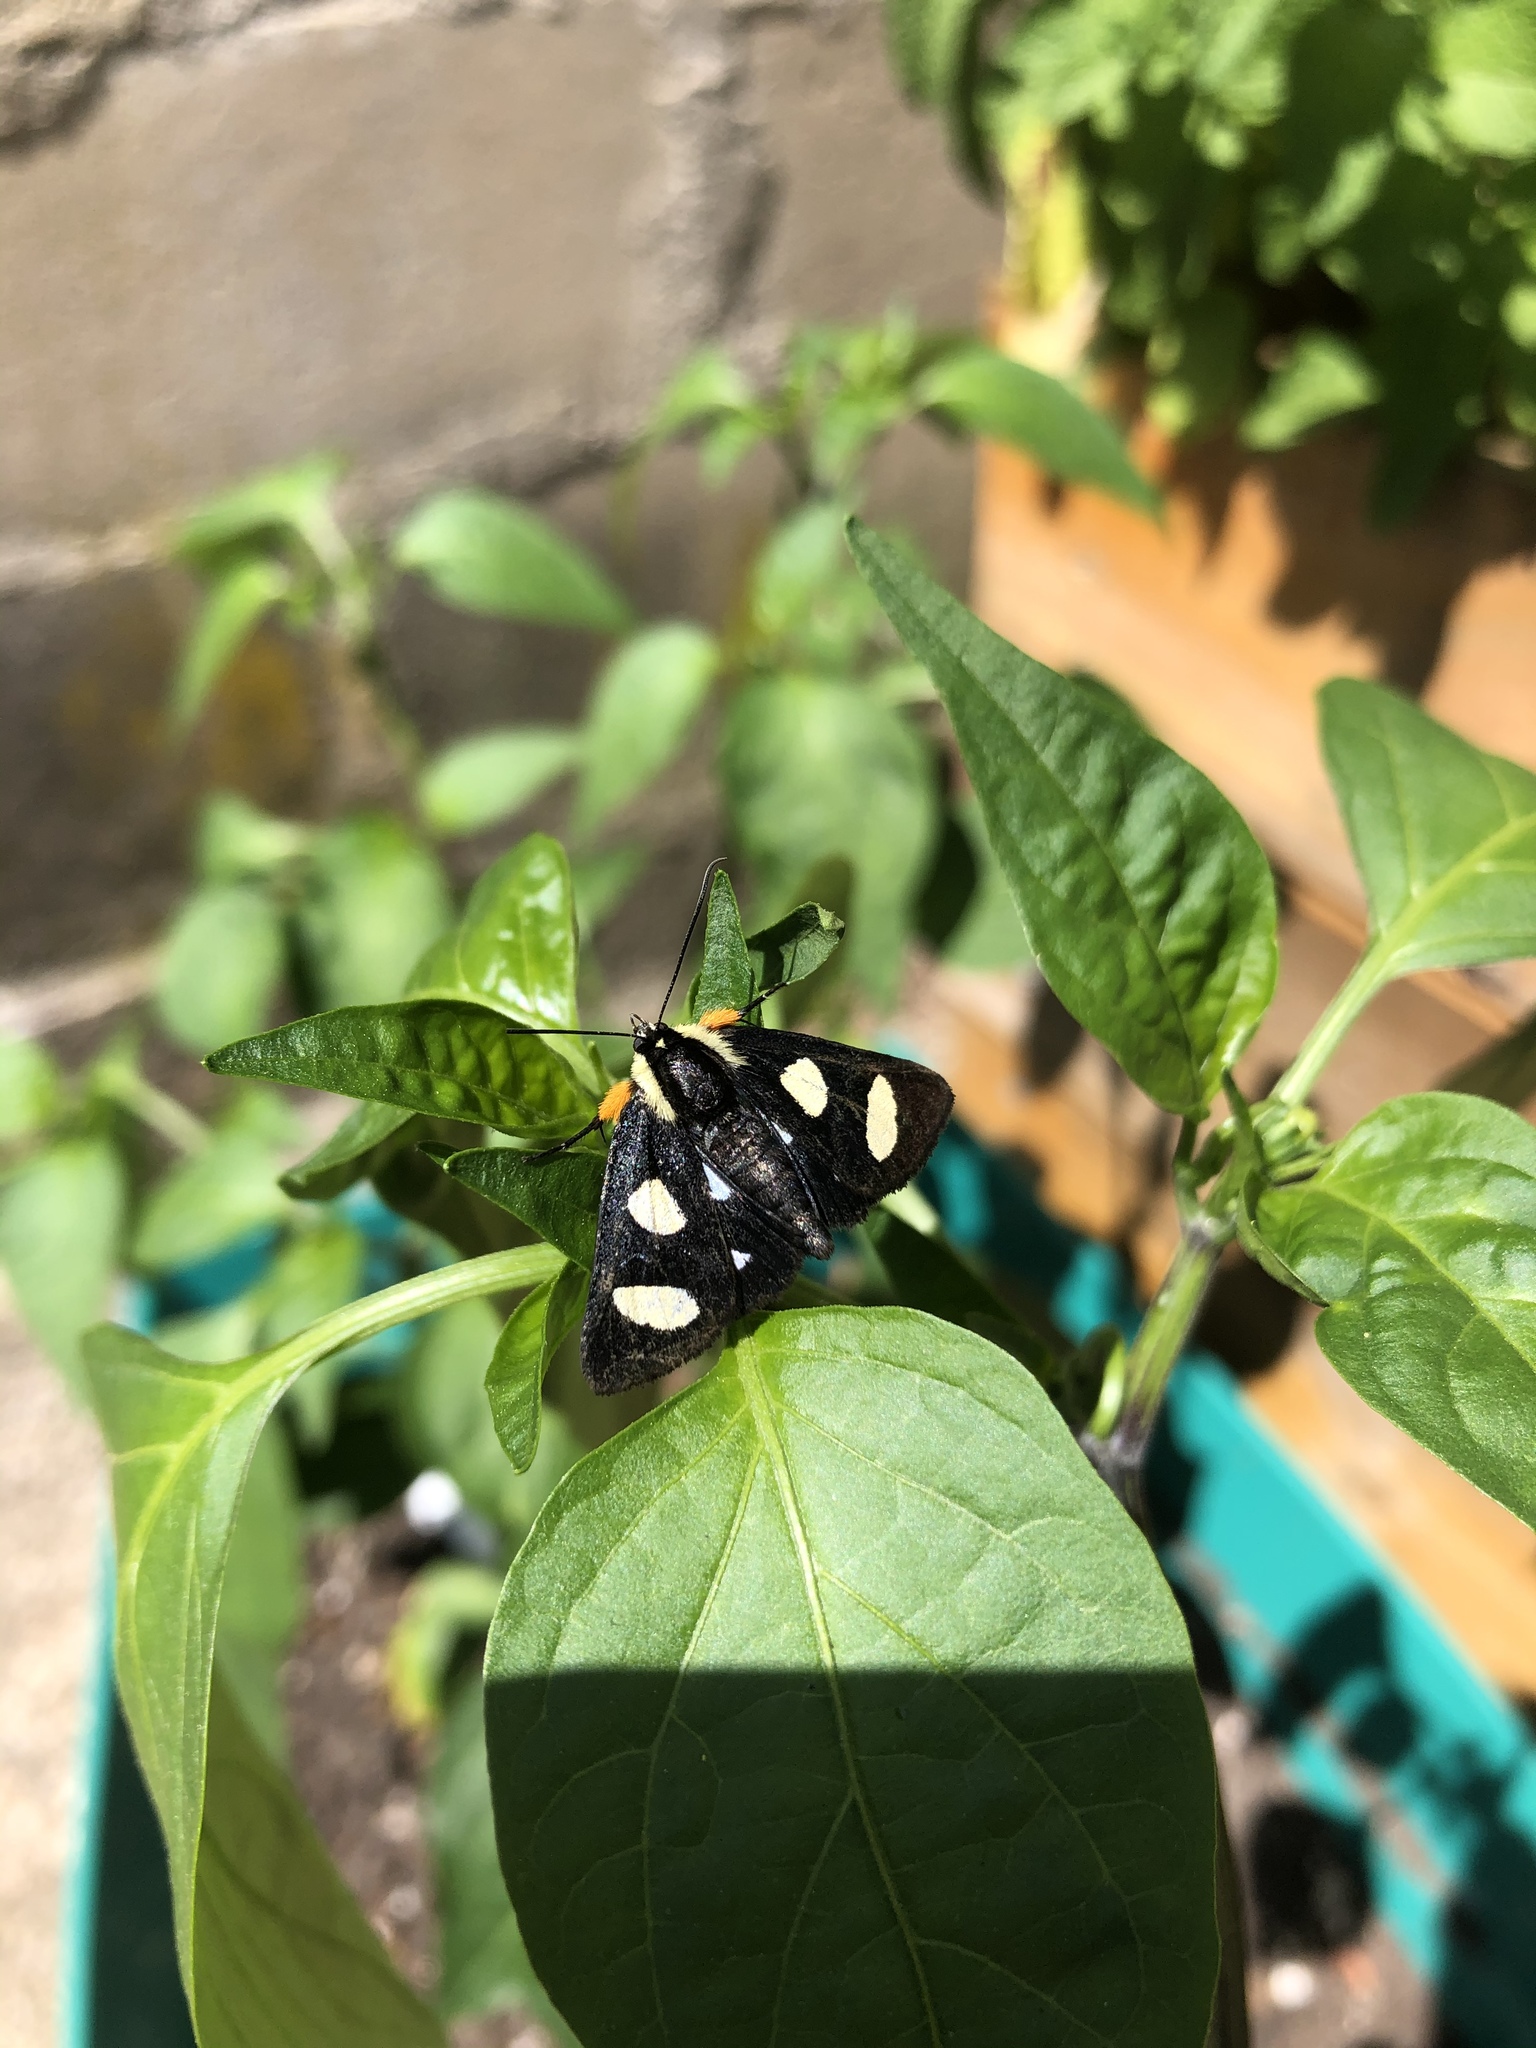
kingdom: Animalia
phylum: Arthropoda
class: Insecta
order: Lepidoptera
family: Noctuidae
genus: Alypia
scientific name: Alypia octomaculata
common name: Eight-spotted forester
